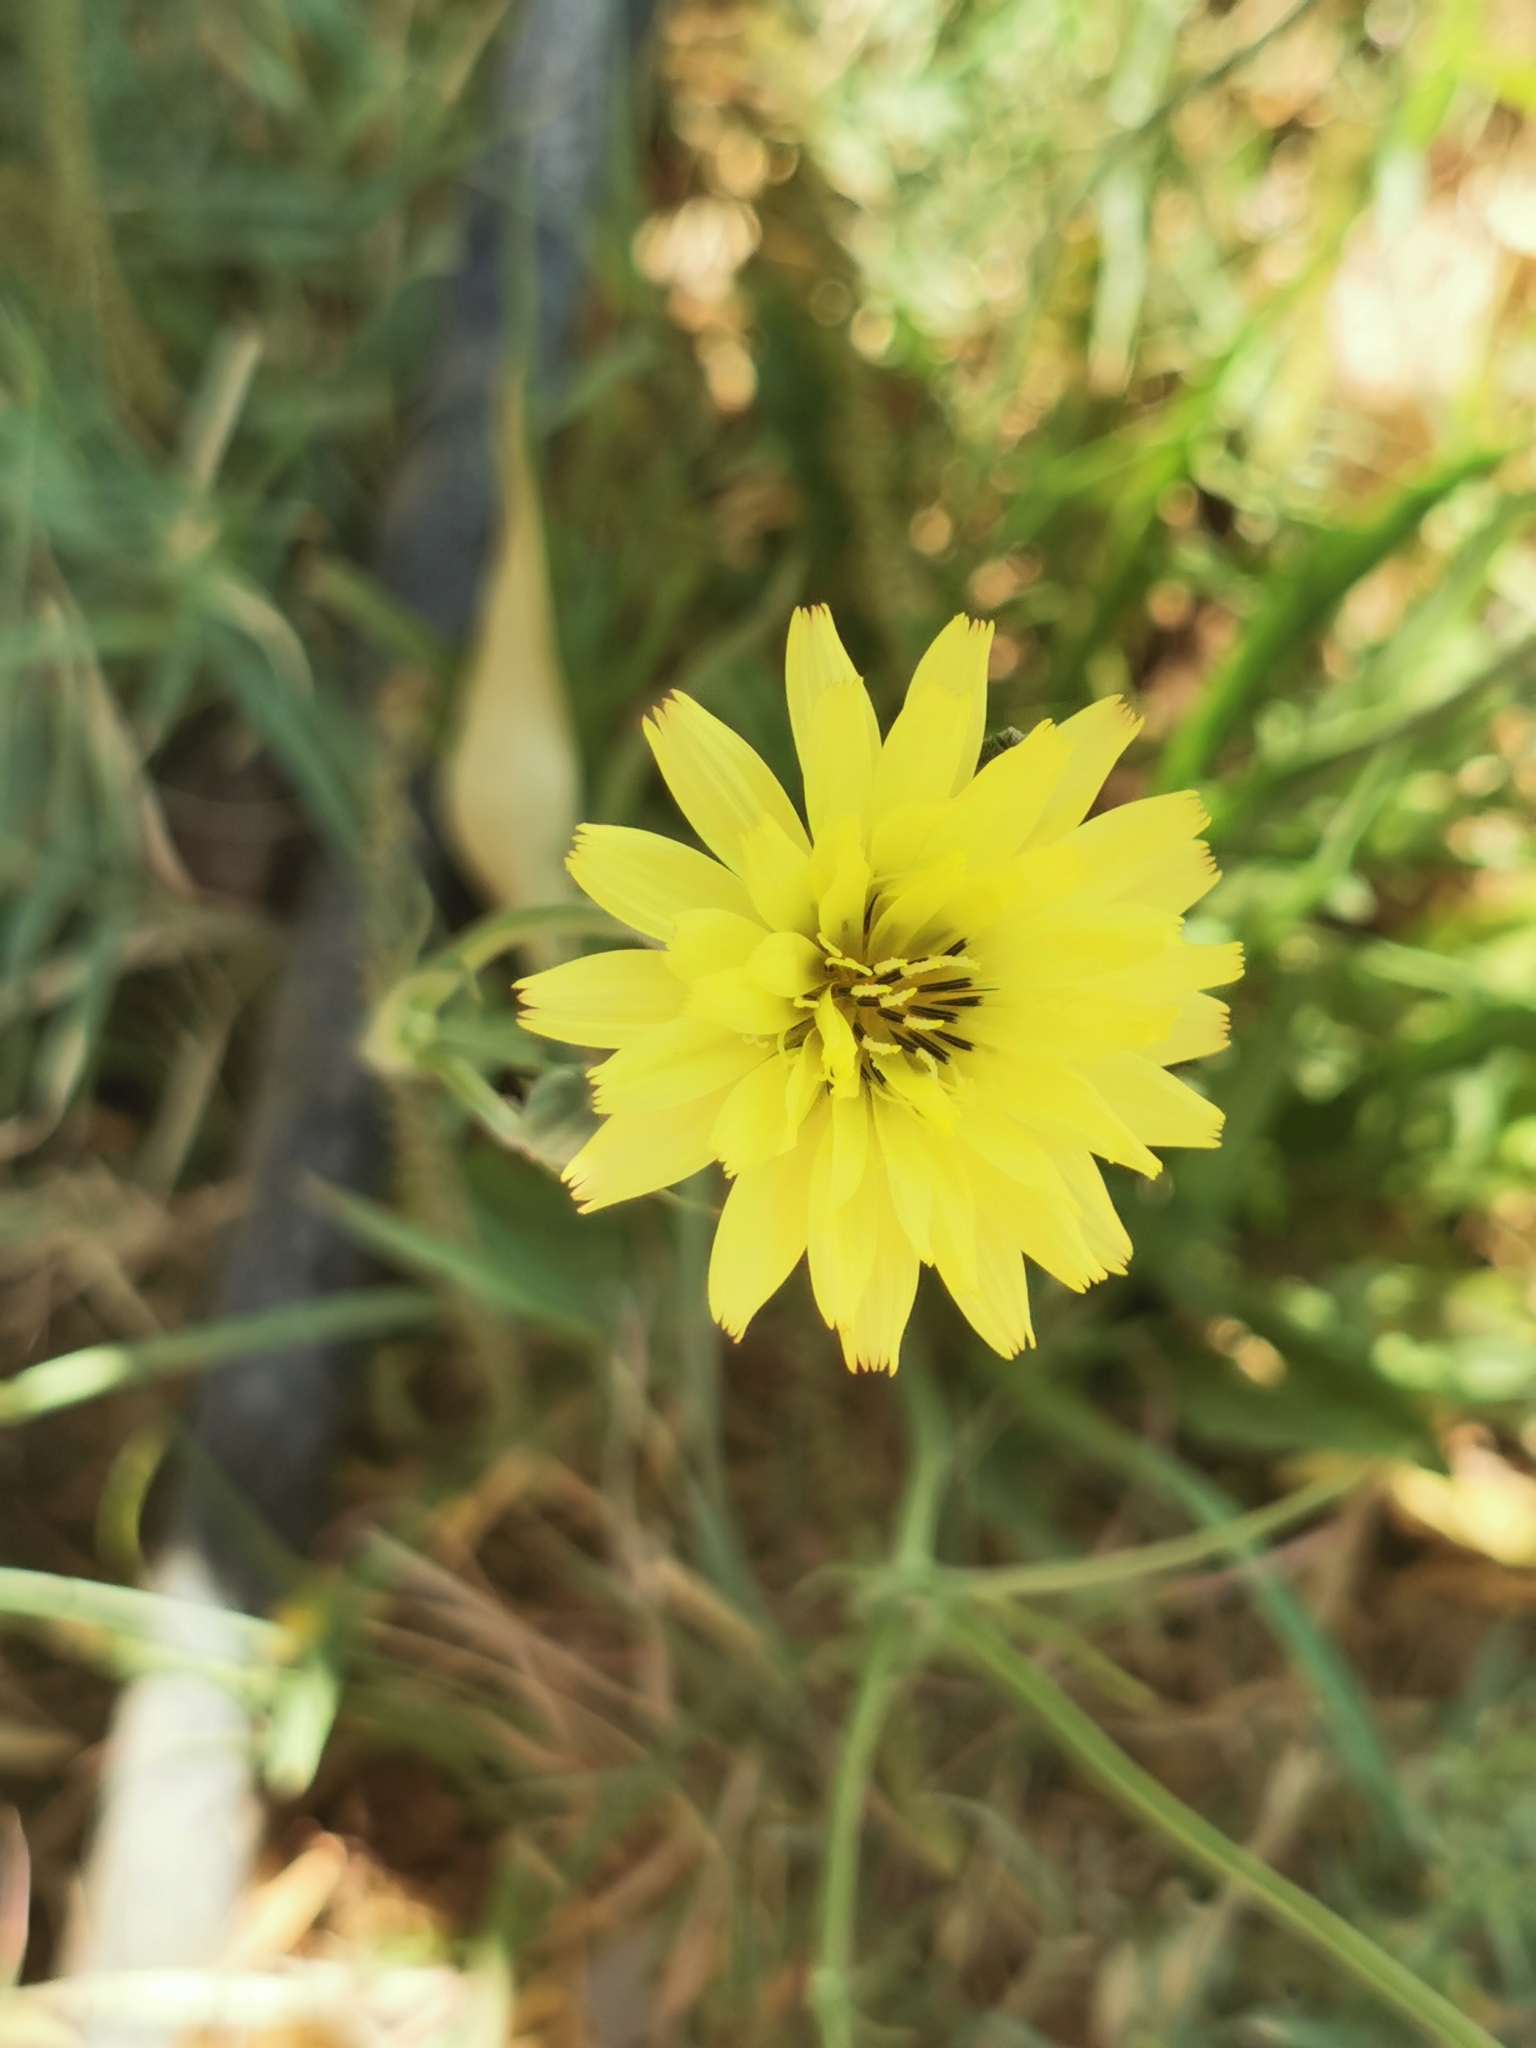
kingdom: Plantae
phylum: Tracheophyta
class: Magnoliopsida
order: Asterales
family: Asteraceae
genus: Pyrrhopappus
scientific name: Pyrrhopappus pauciflorus
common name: Texas false dandelion
